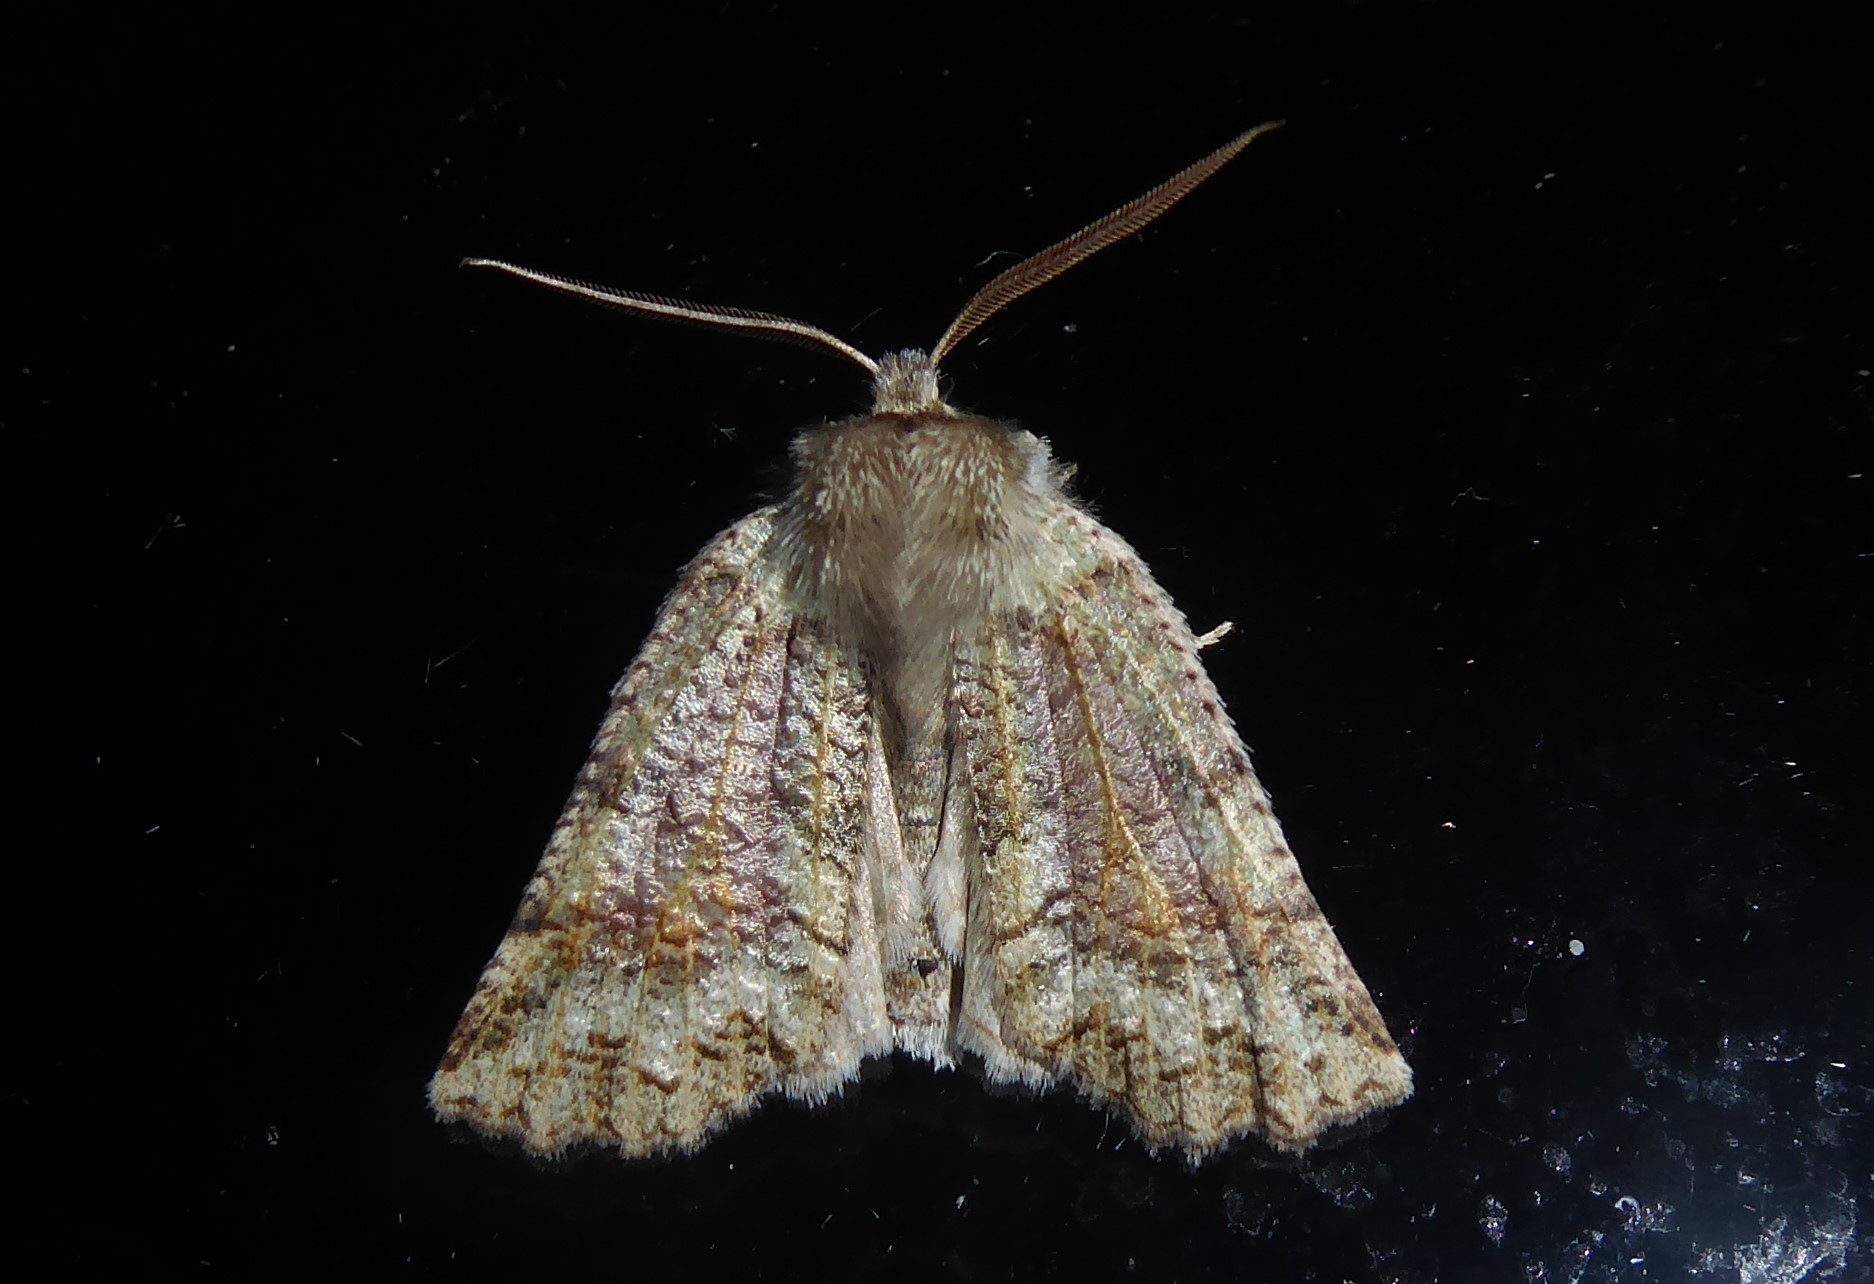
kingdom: Animalia
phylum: Arthropoda
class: Insecta
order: Lepidoptera
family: Geometridae
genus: Declana
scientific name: Declana floccosa
